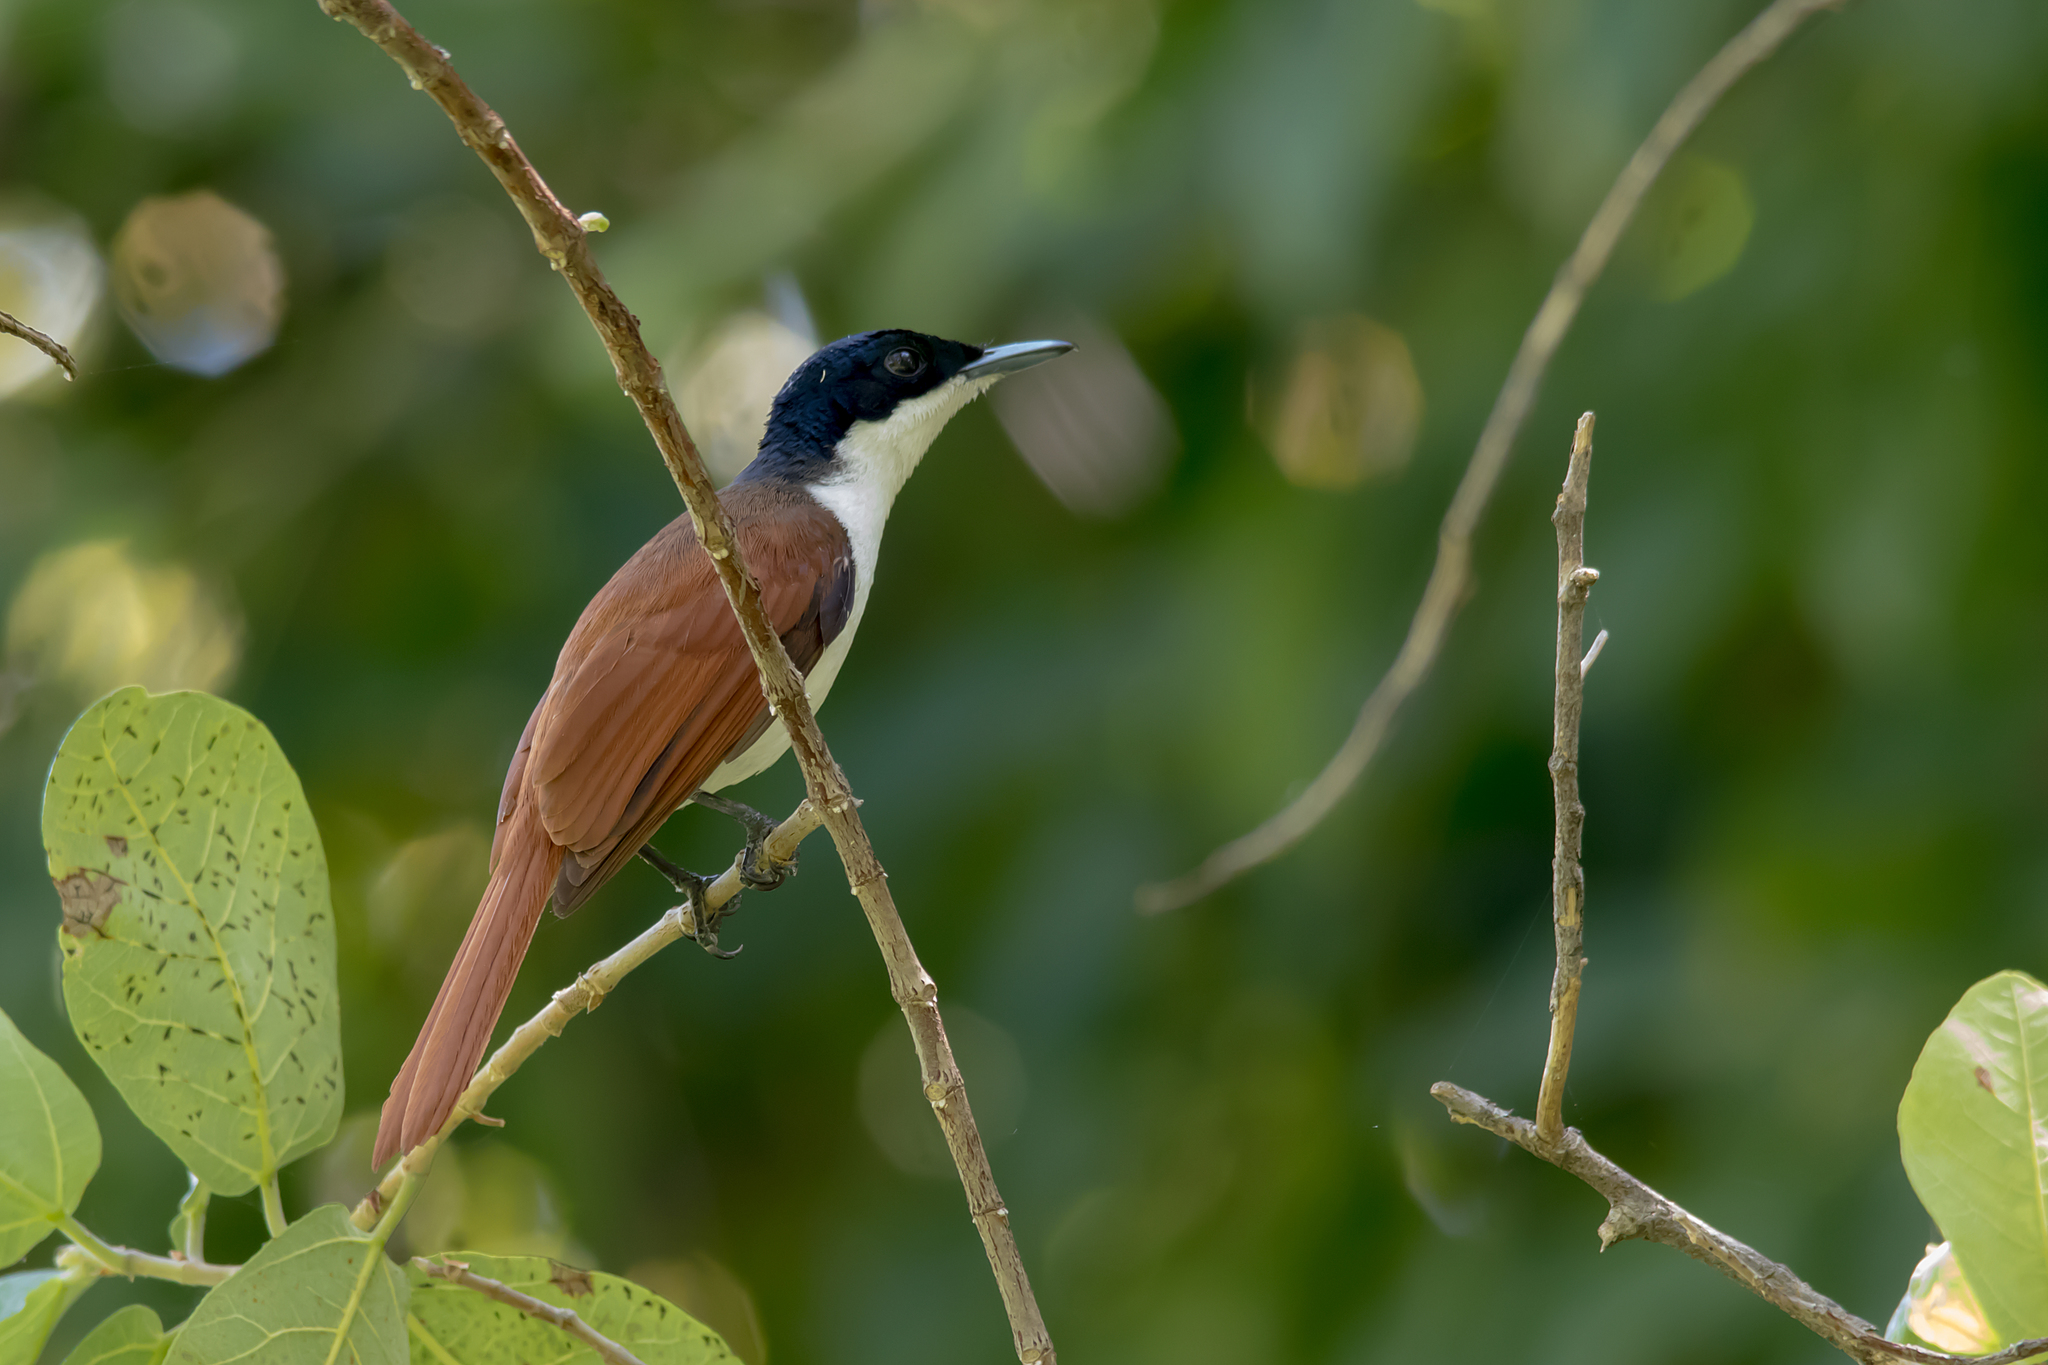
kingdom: Animalia
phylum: Chordata
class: Aves
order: Passeriformes
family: Monarchidae
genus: Myiagra
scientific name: Myiagra alecto
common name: Shining flycatcher
